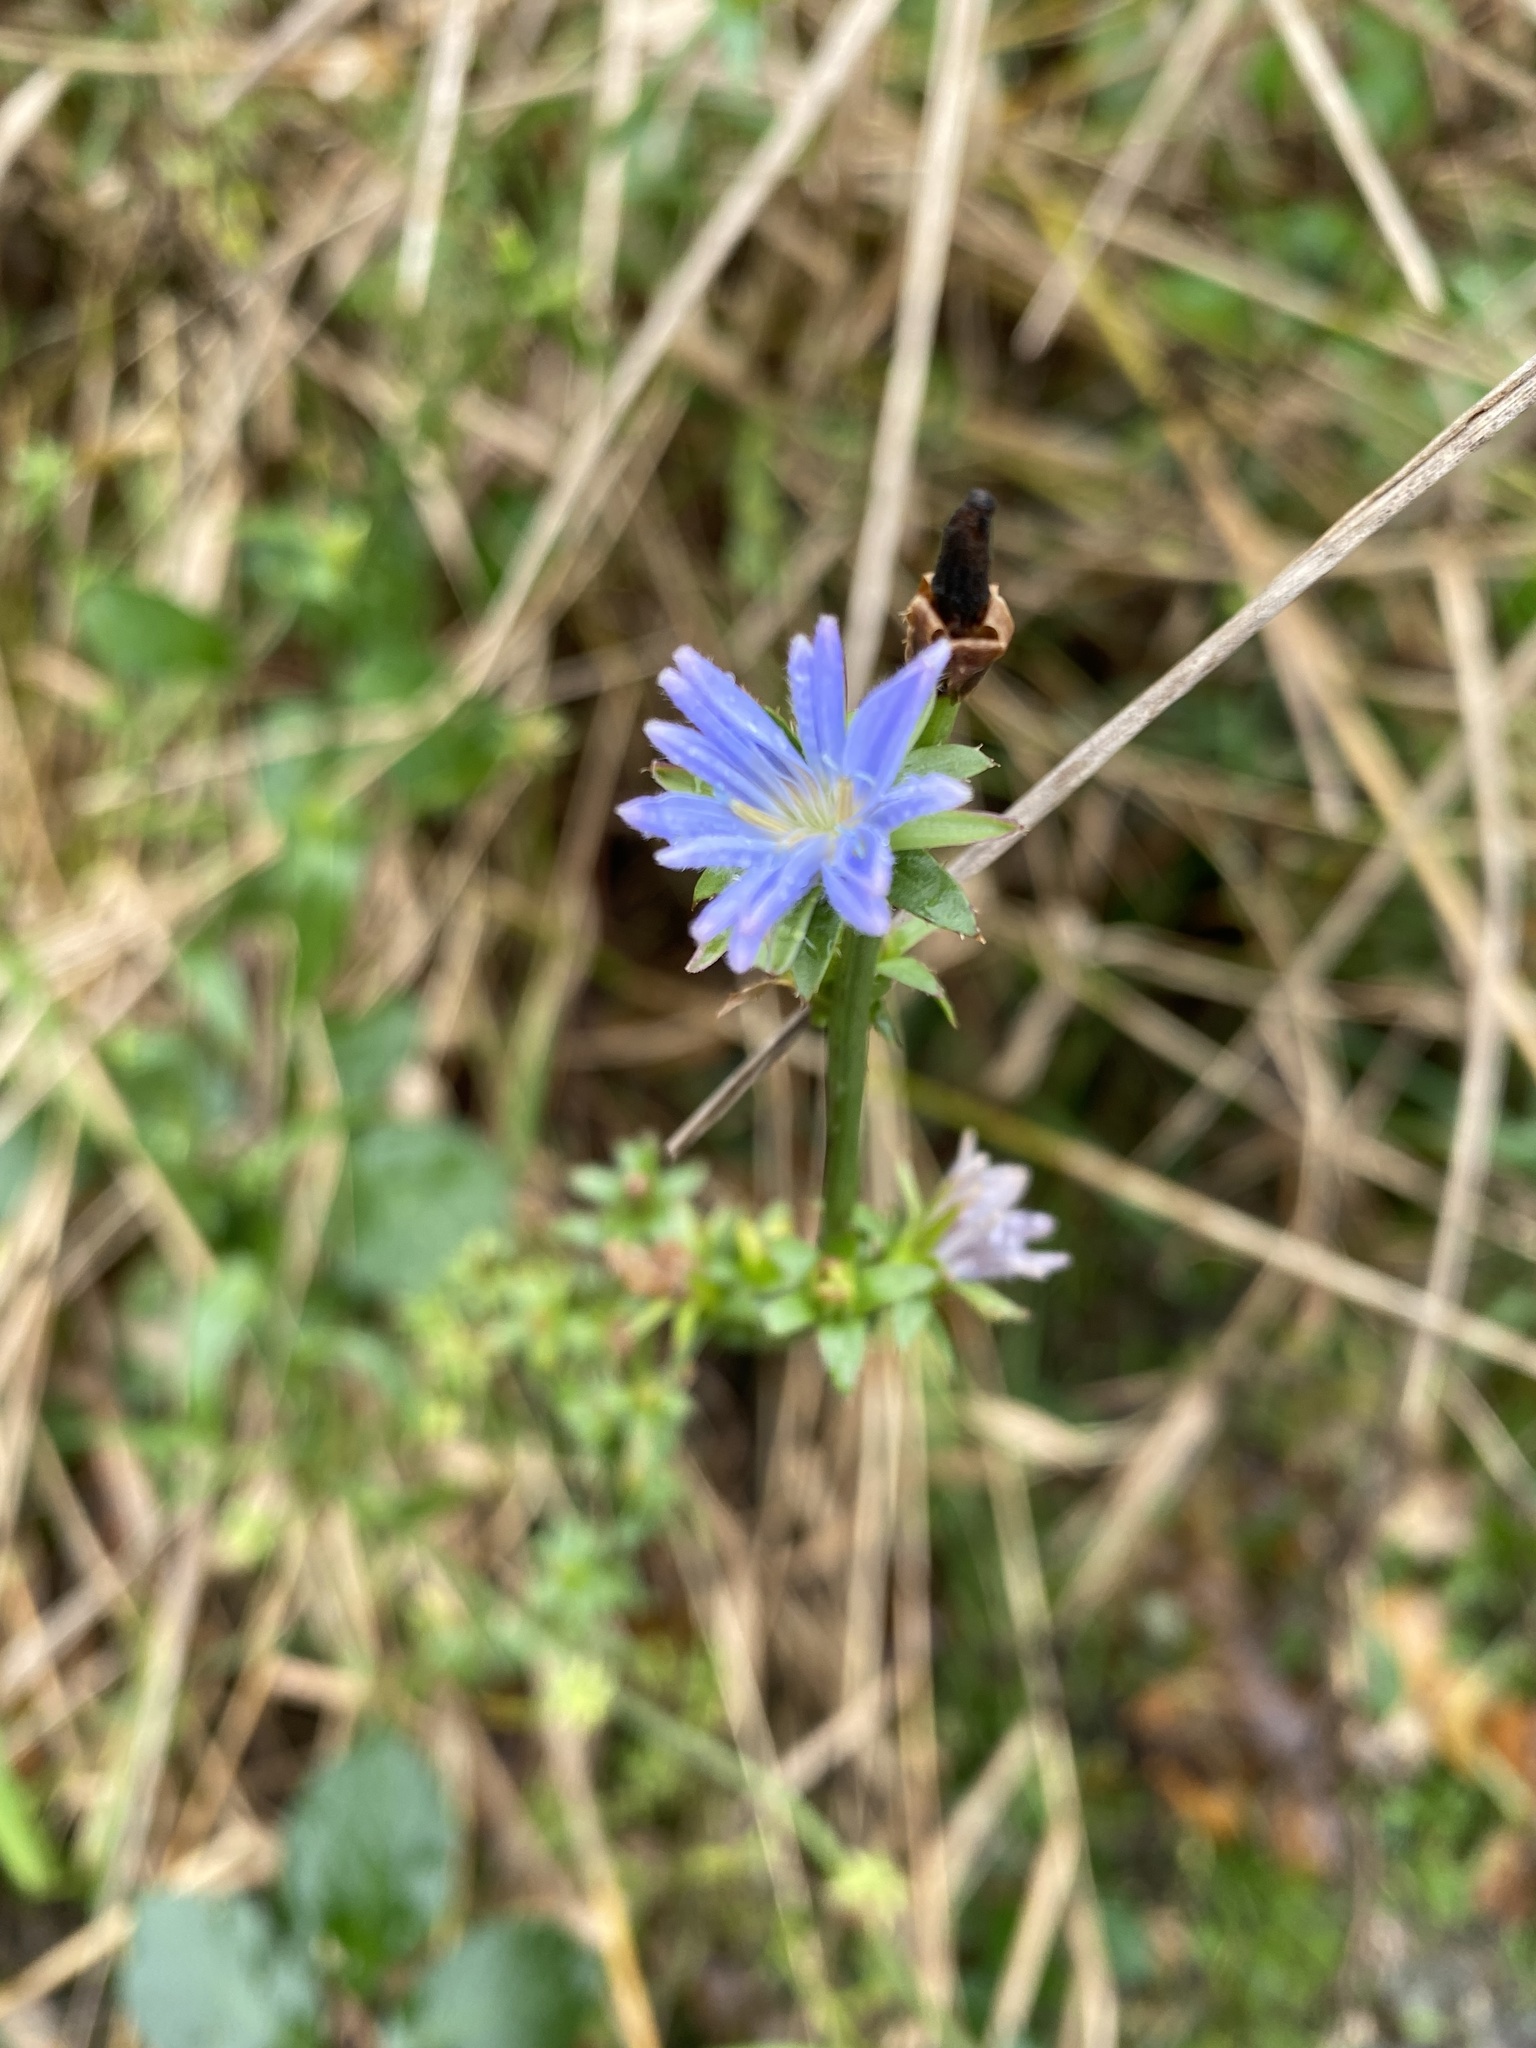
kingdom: Plantae
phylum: Tracheophyta
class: Magnoliopsida
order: Asterales
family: Asteraceae
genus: Cichorium
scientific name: Cichorium intybus
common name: Chicory
